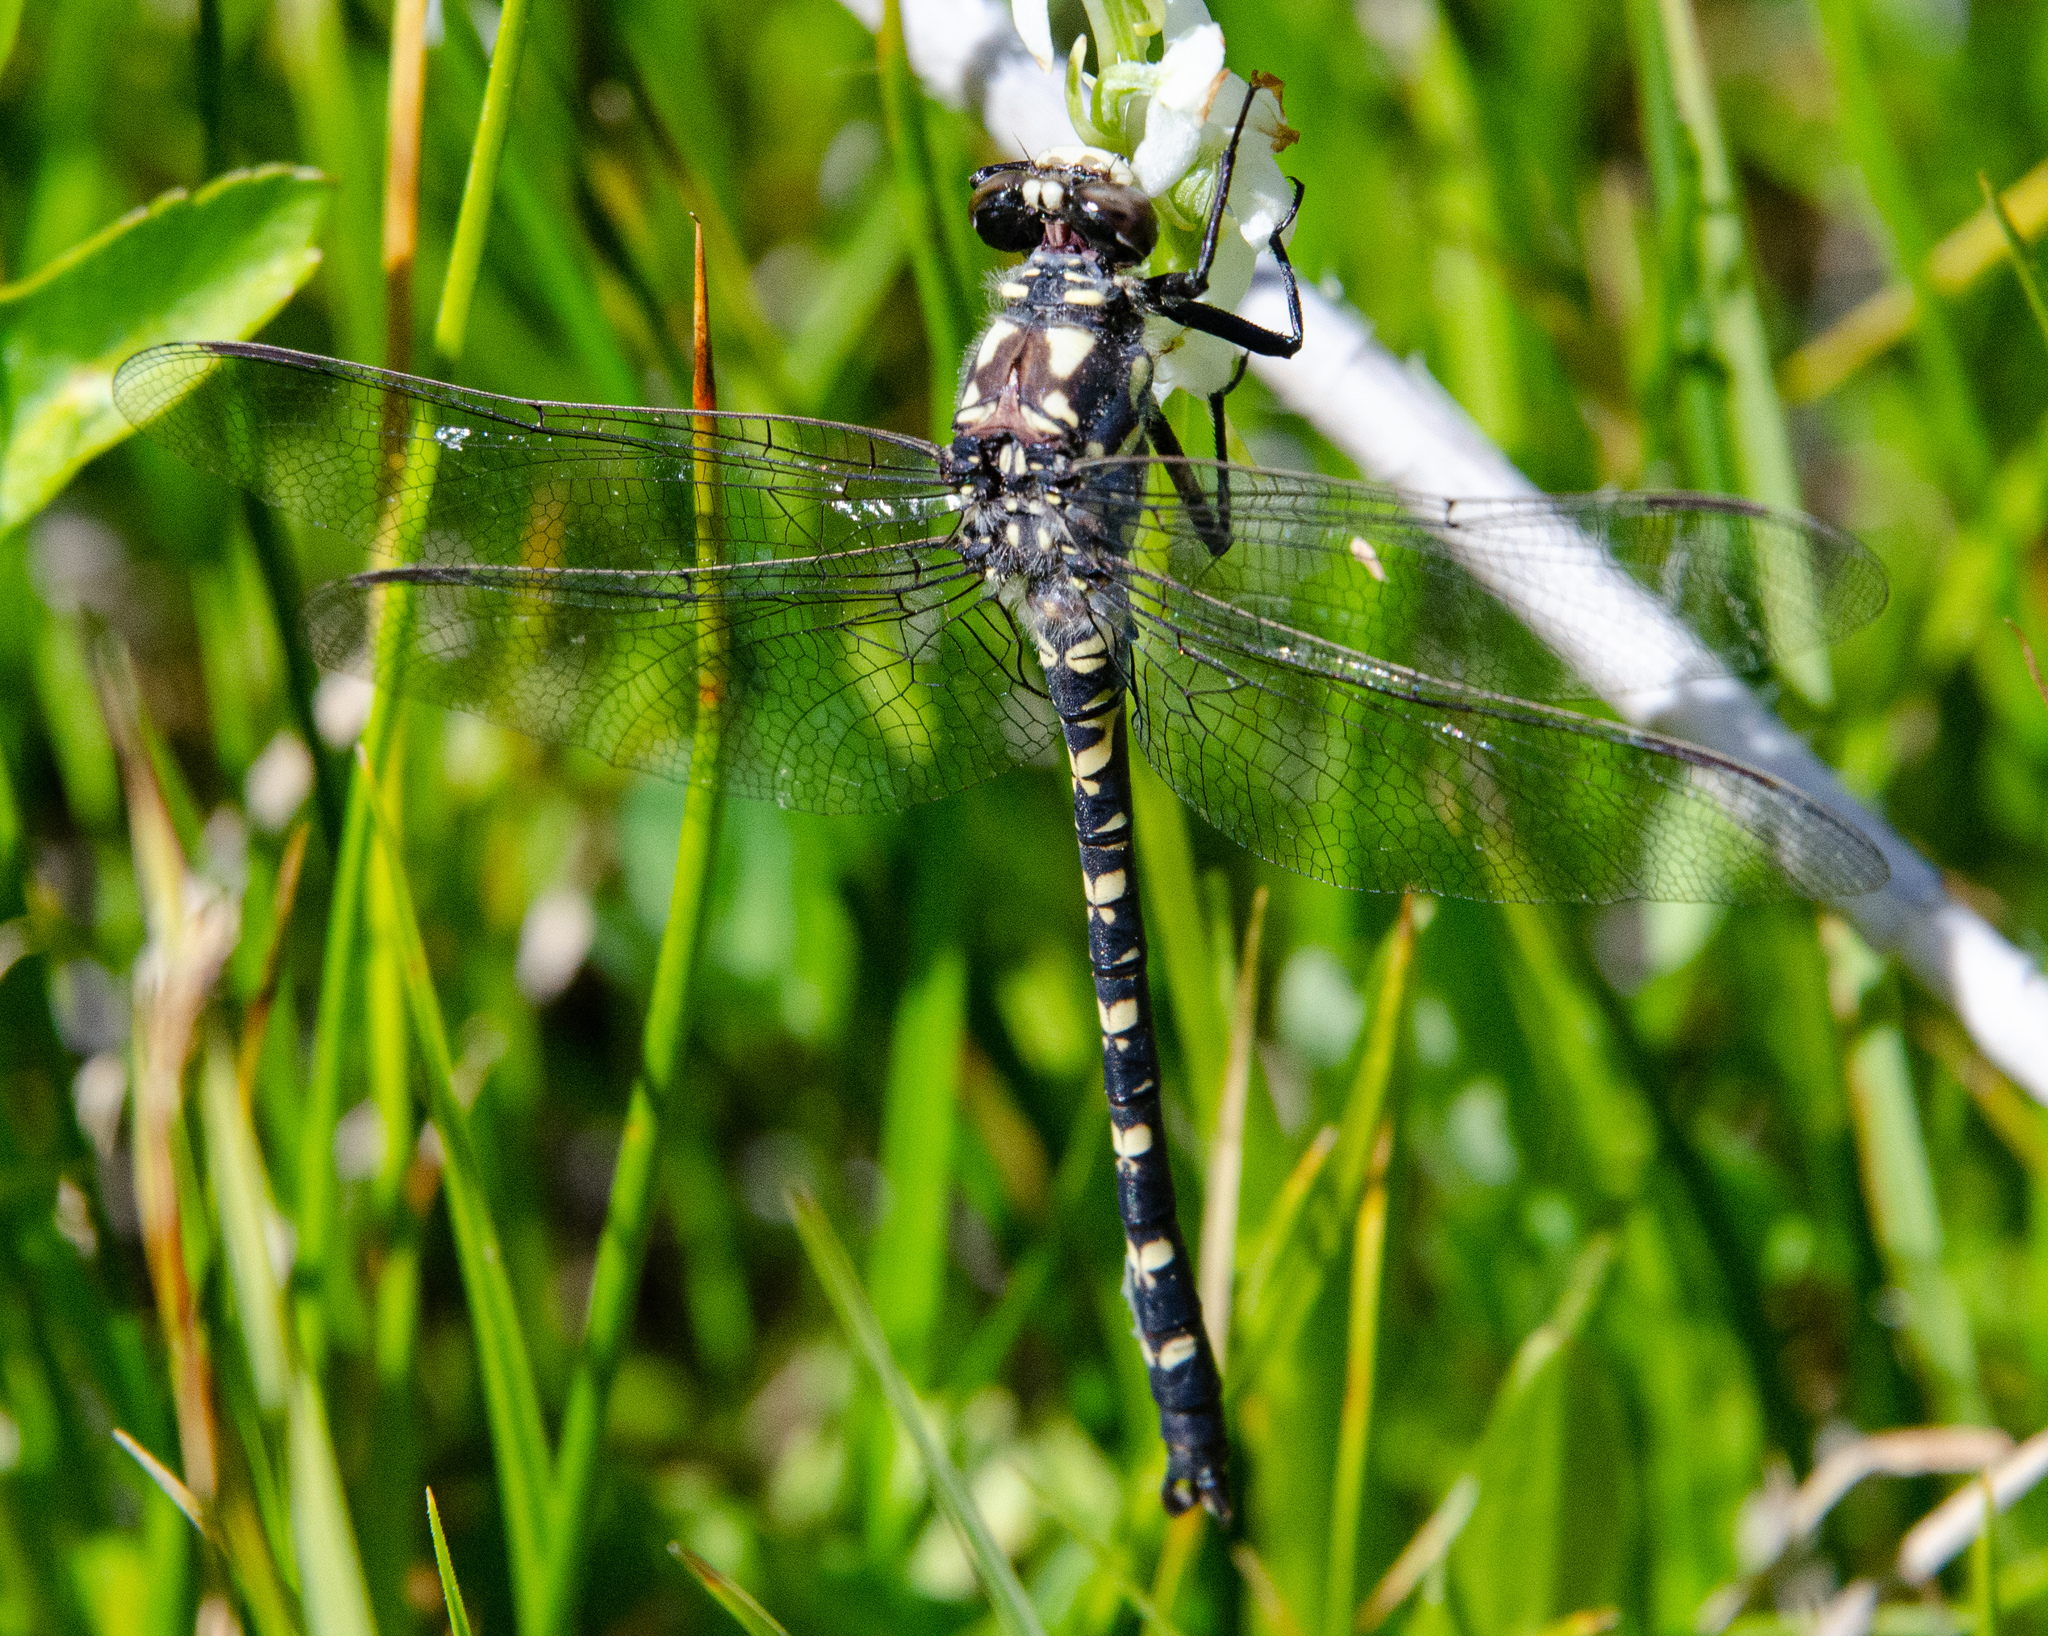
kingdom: Animalia
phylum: Arthropoda
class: Insecta
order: Odonata
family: Petaluridae
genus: Tanypteryx
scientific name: Tanypteryx hageni
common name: Black petaltail
